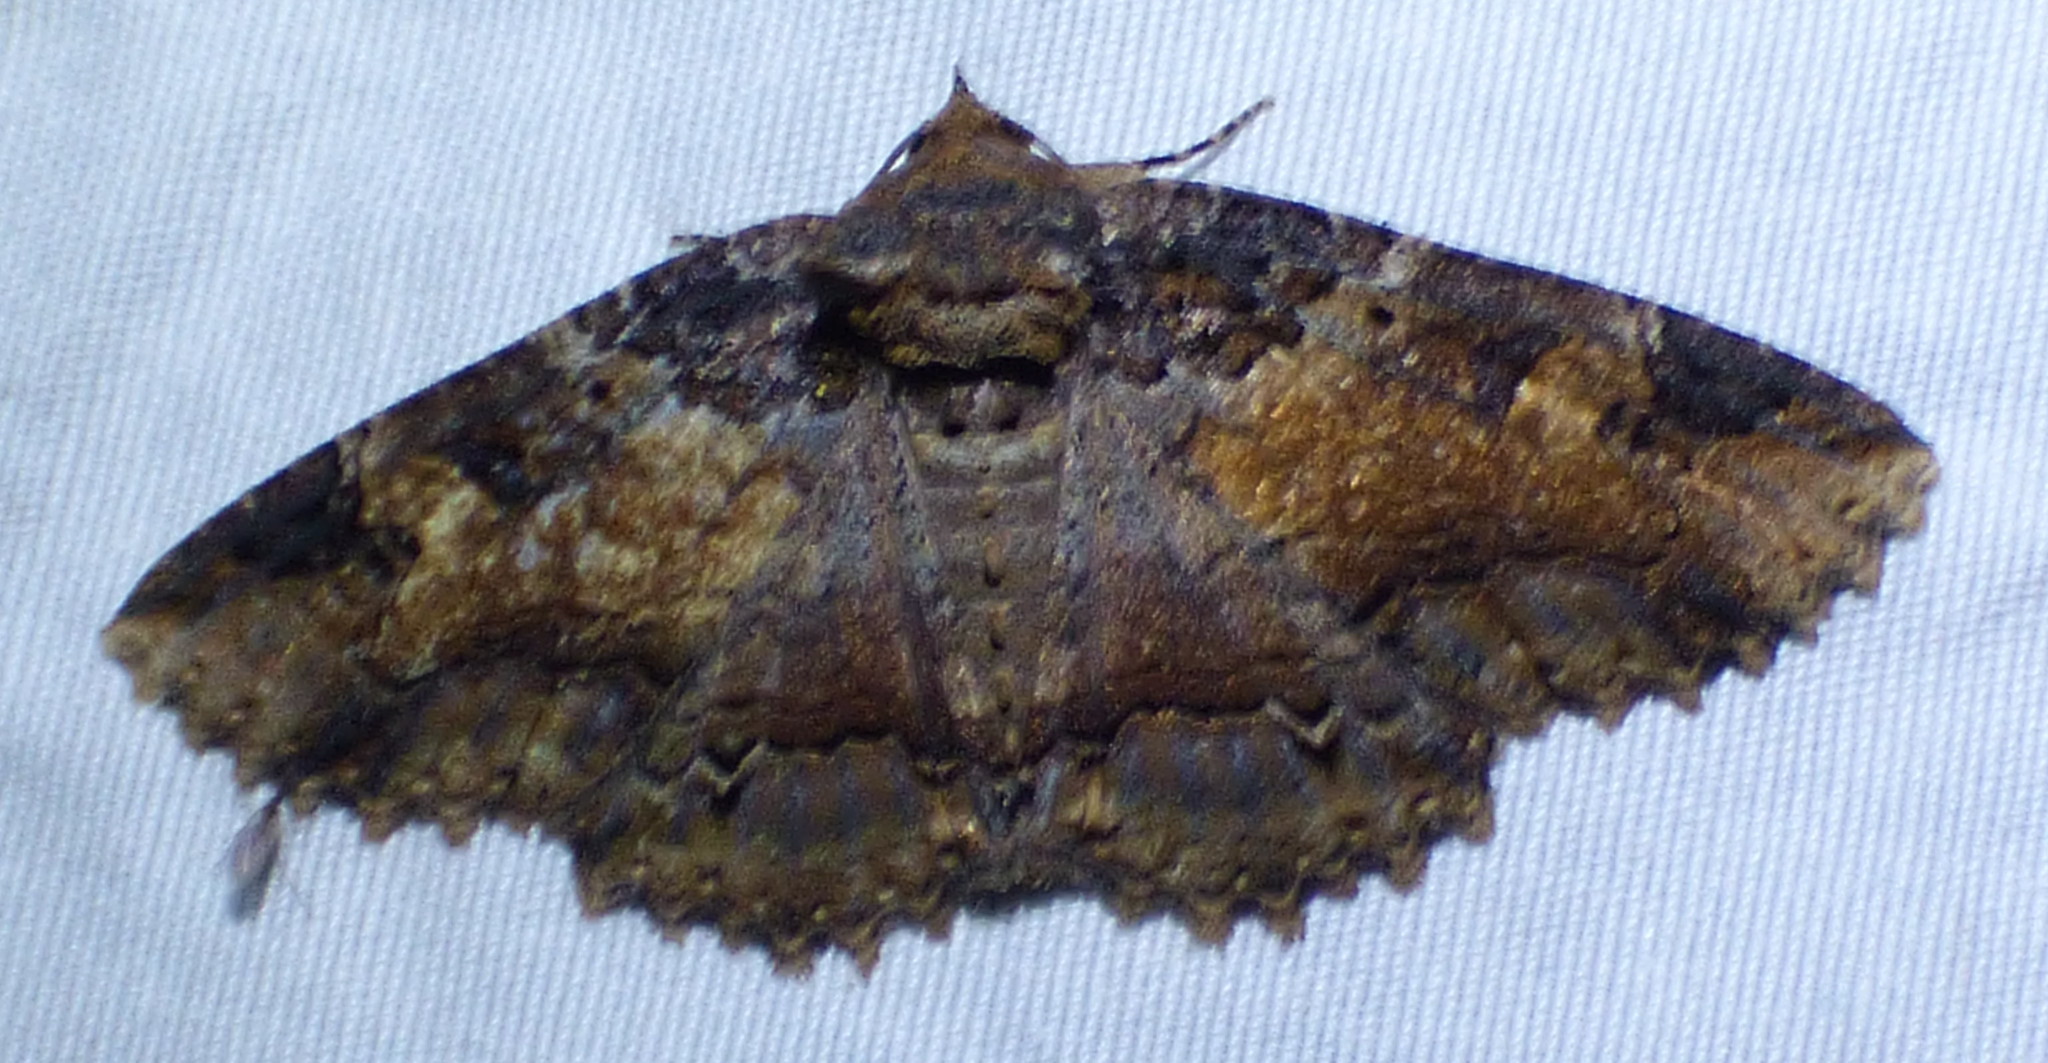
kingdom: Animalia
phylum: Arthropoda
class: Insecta
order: Lepidoptera
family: Erebidae
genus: Zale
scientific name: Zale minerea
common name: Colorful zale moth
